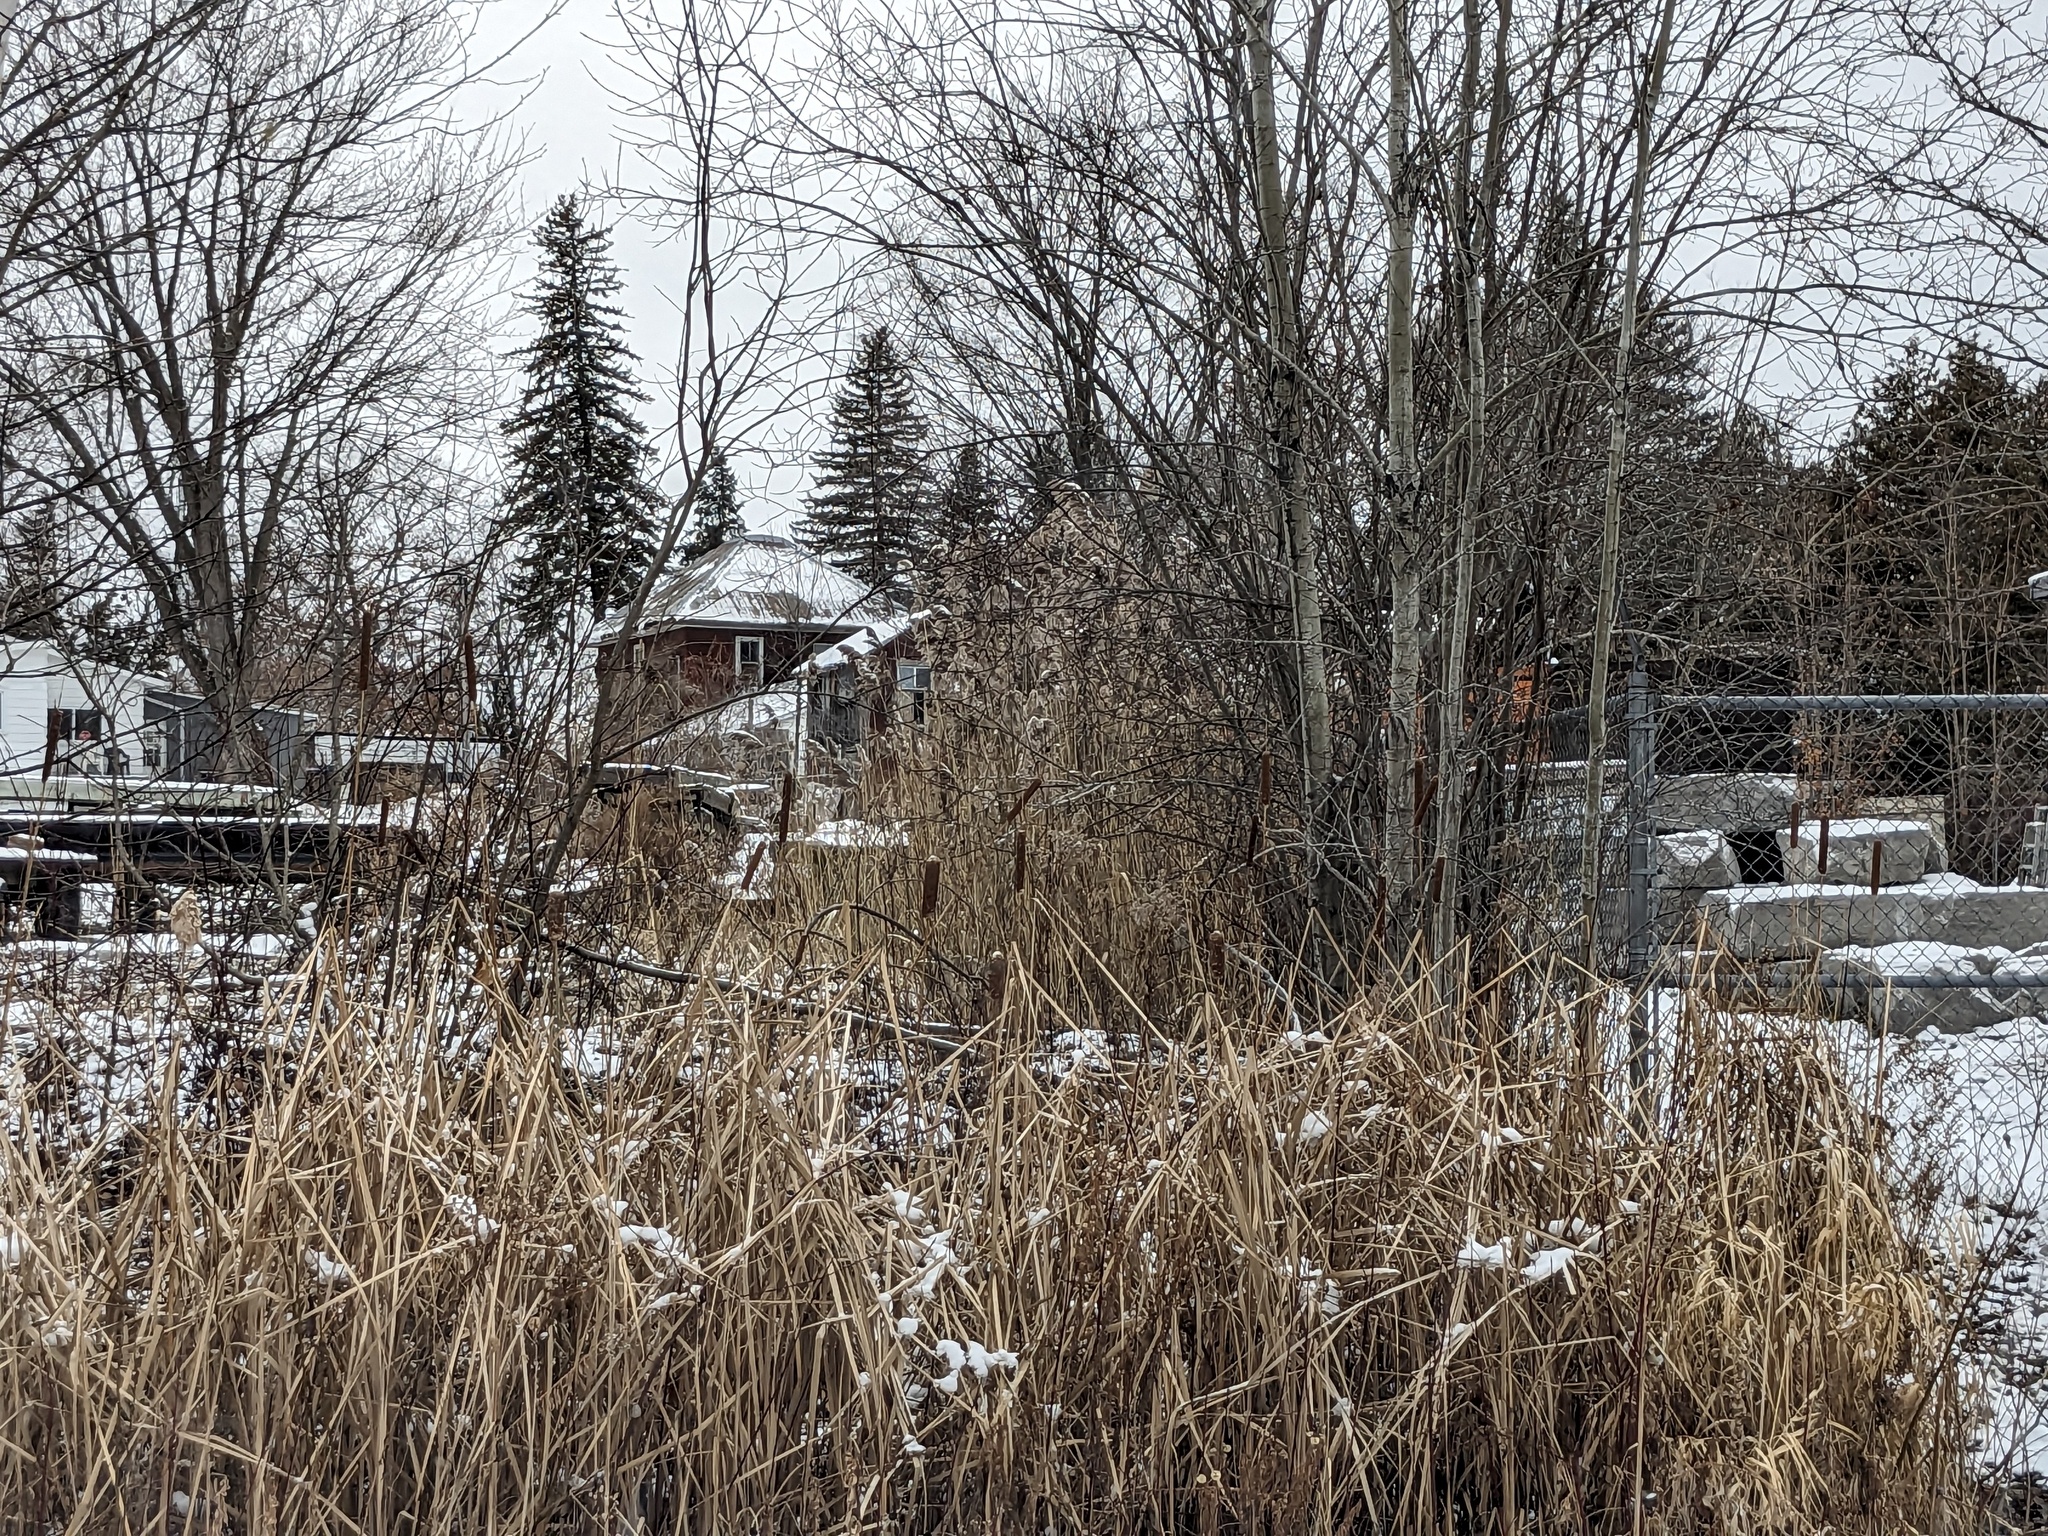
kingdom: Plantae
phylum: Tracheophyta
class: Liliopsida
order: Poales
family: Poaceae
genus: Phragmites
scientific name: Phragmites australis
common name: Common reed
